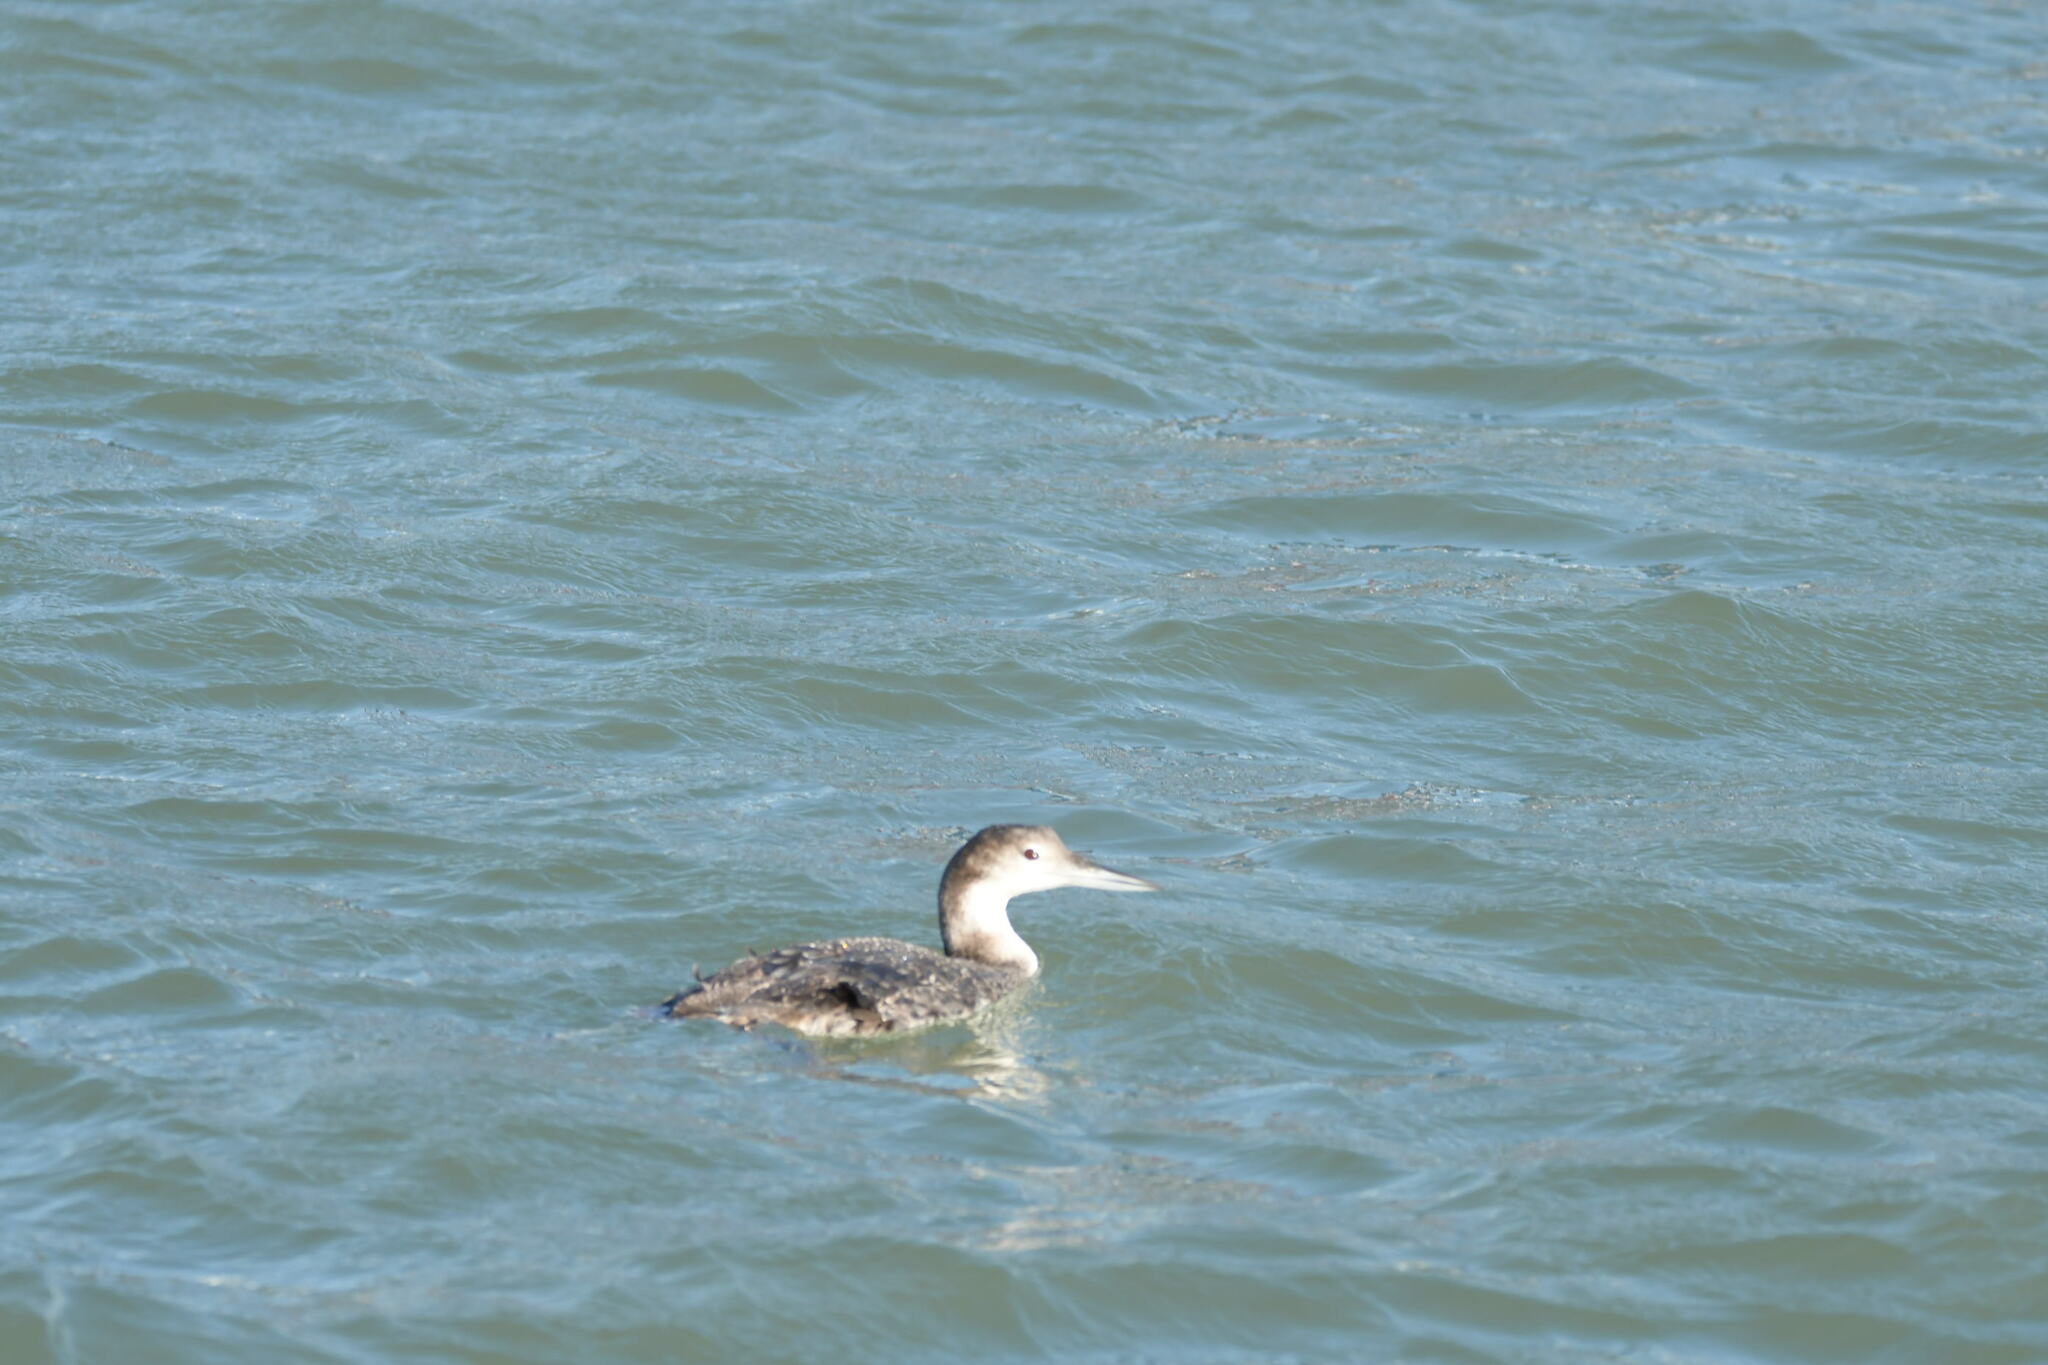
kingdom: Animalia
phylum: Chordata
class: Aves
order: Gaviiformes
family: Gaviidae
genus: Gavia
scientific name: Gavia immer
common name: Common loon
